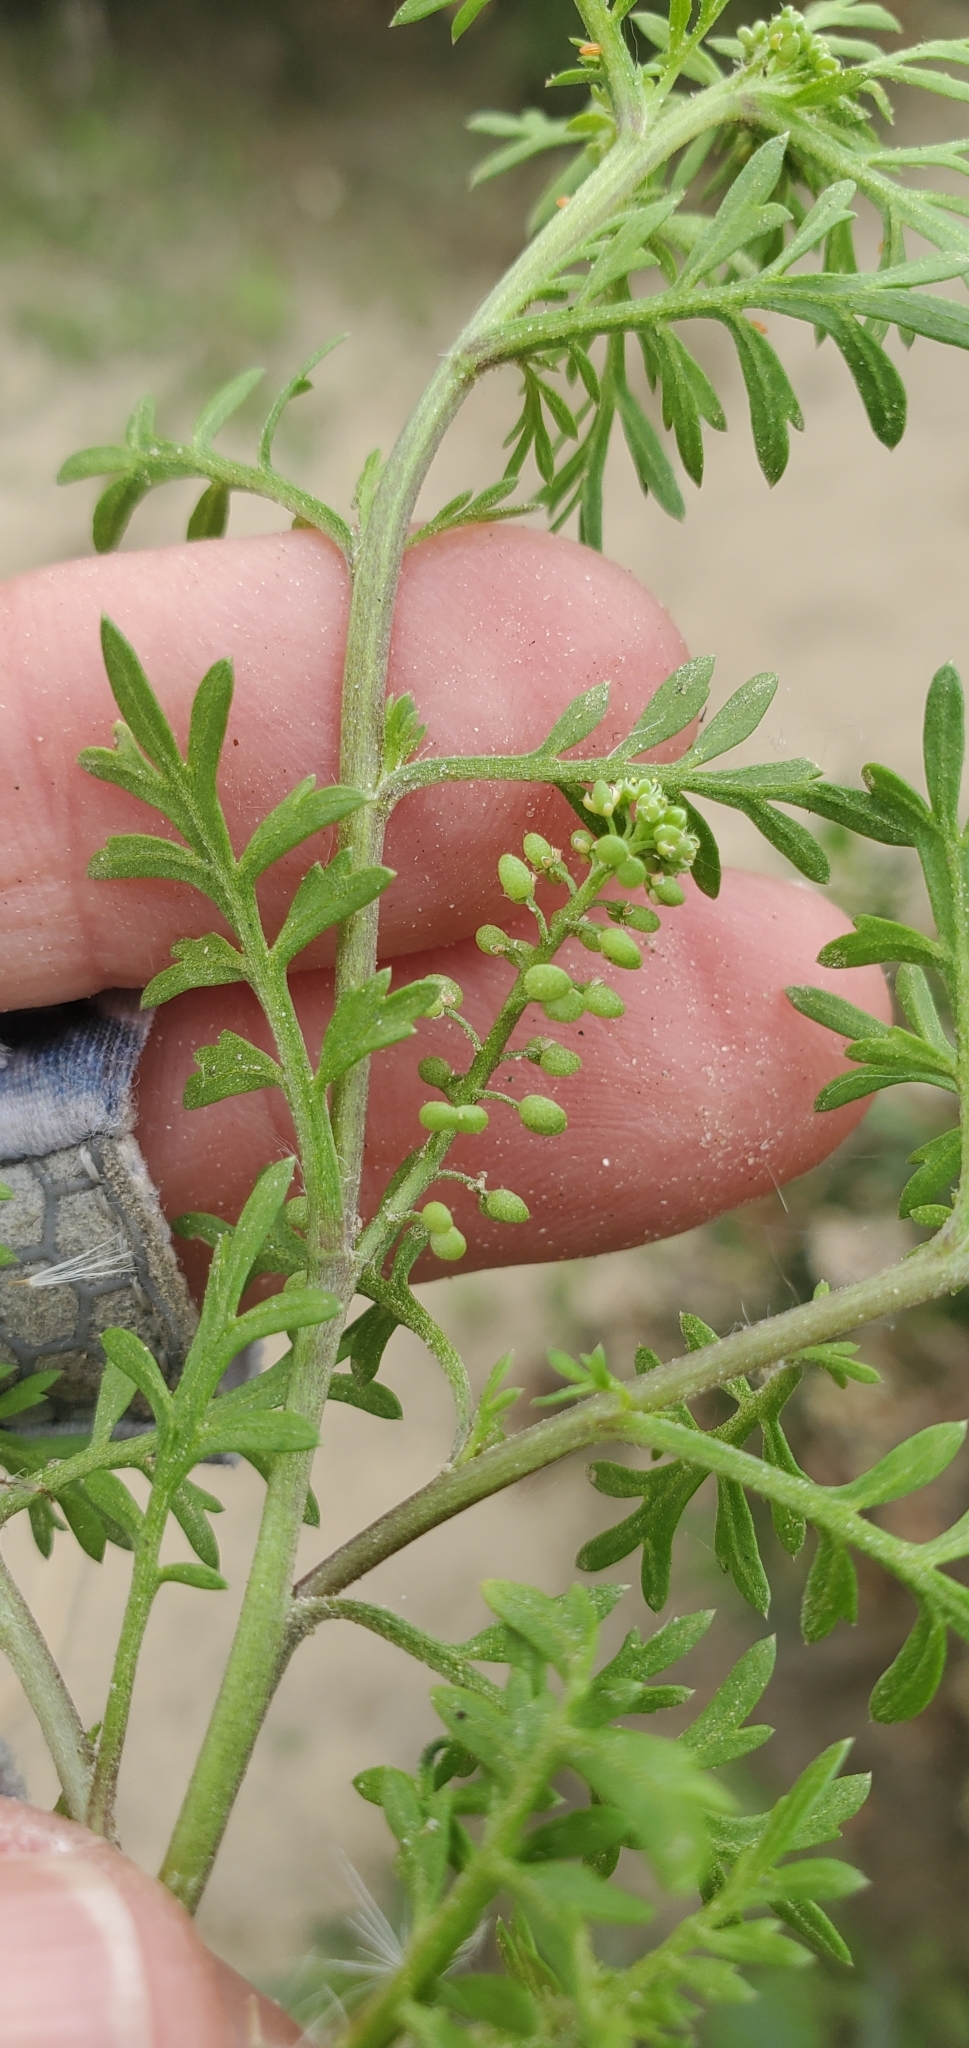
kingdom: Plantae
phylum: Tracheophyta
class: Magnoliopsida
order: Brassicales
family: Brassicaceae
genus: Lepidium
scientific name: Lepidium didymum
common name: Lesser swinecress
